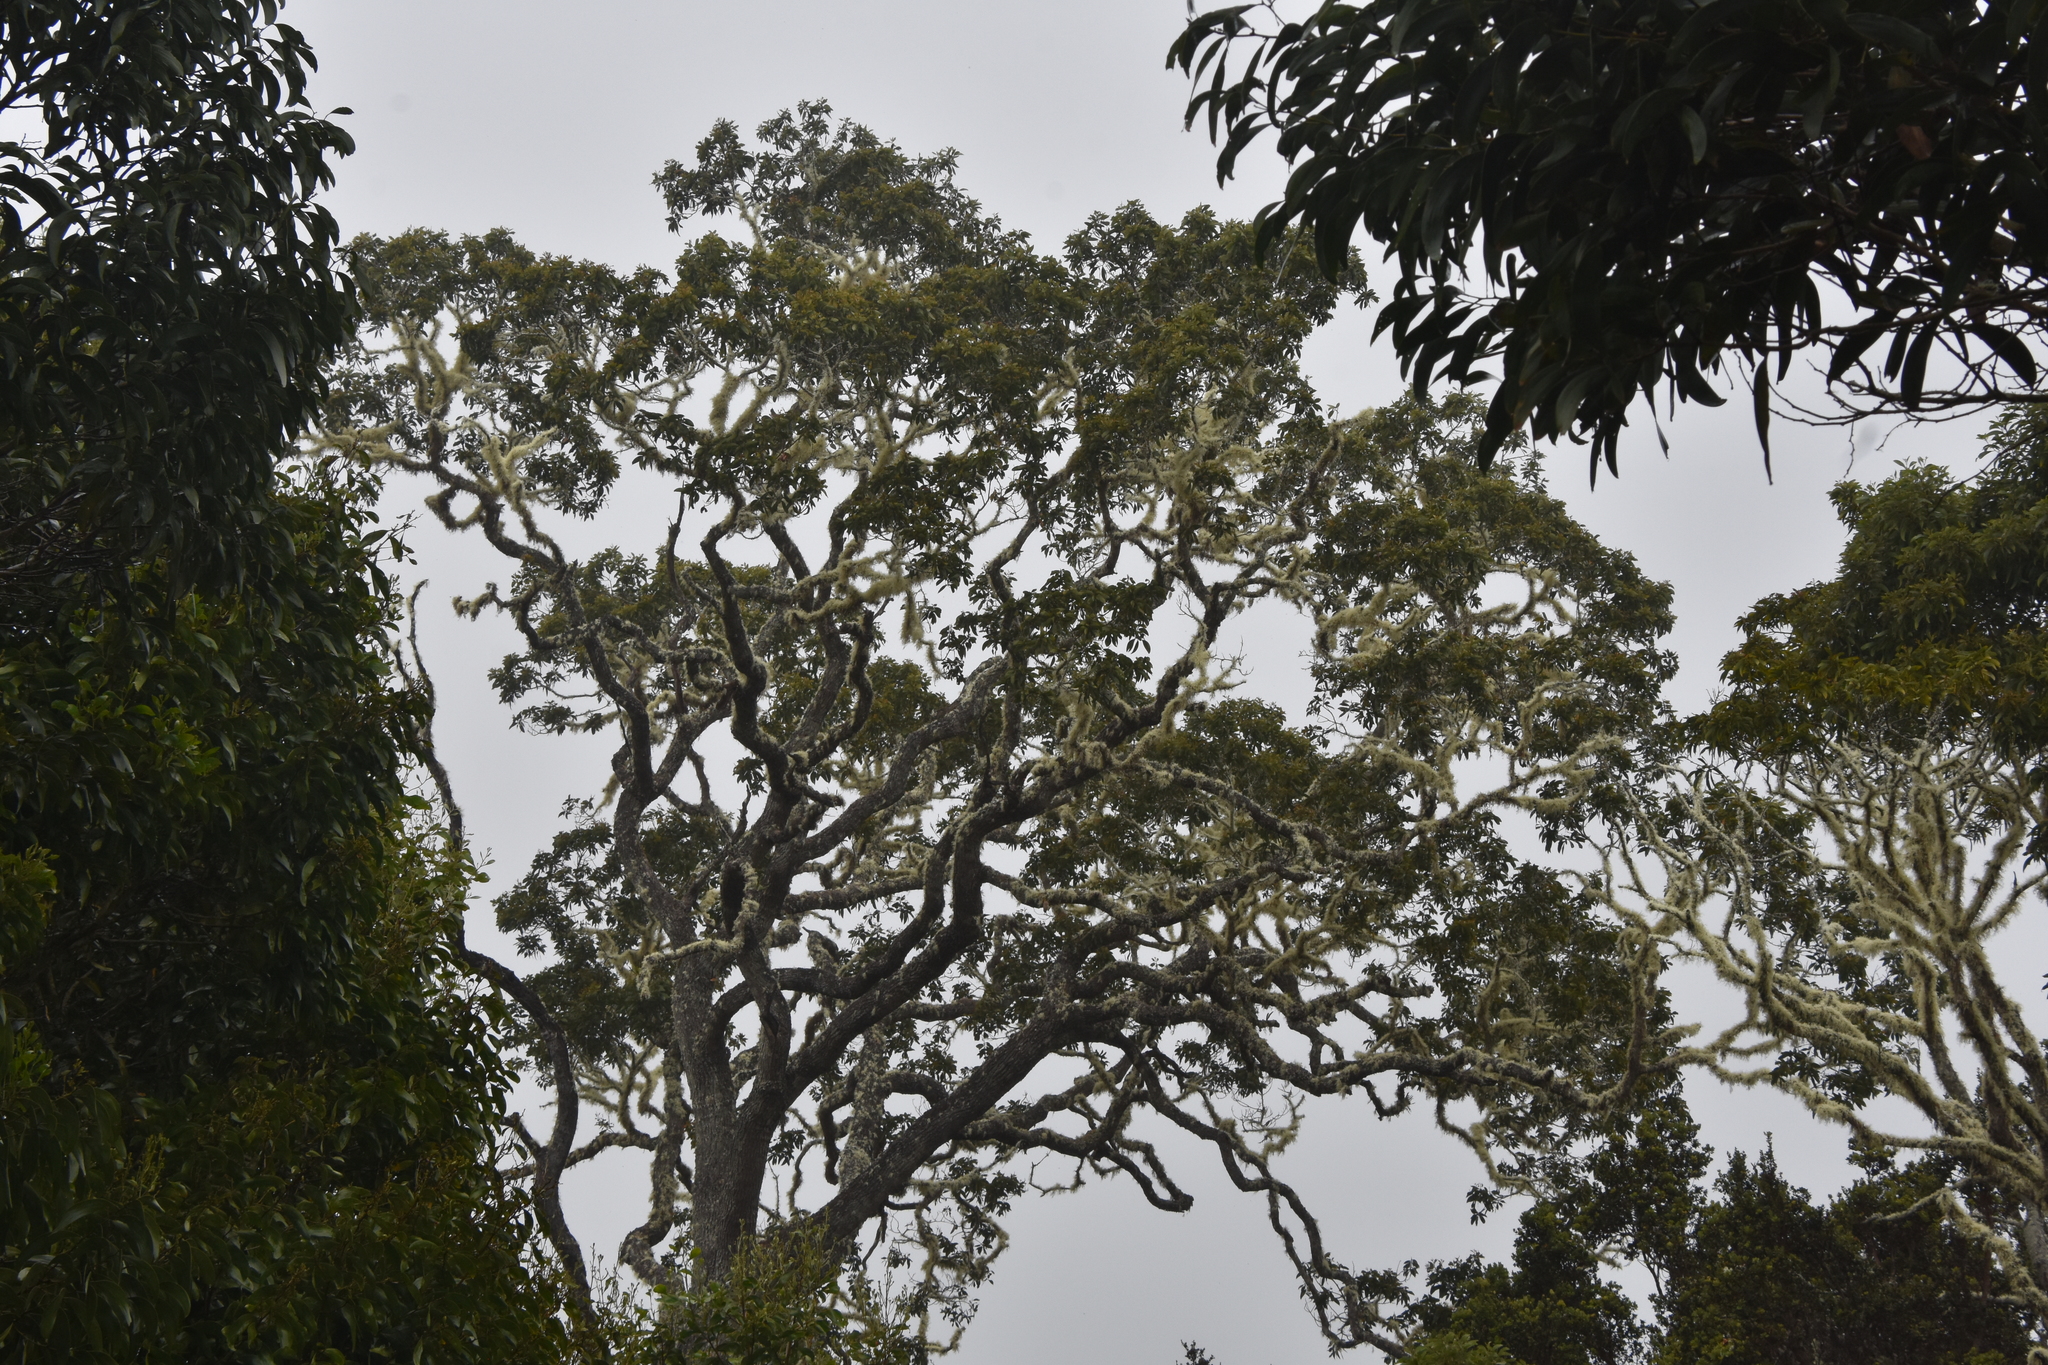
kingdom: Plantae
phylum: Tracheophyta
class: Magnoliopsida
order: Fabales
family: Fabaceae
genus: Acacia
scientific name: Acacia koa
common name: Gray koa
